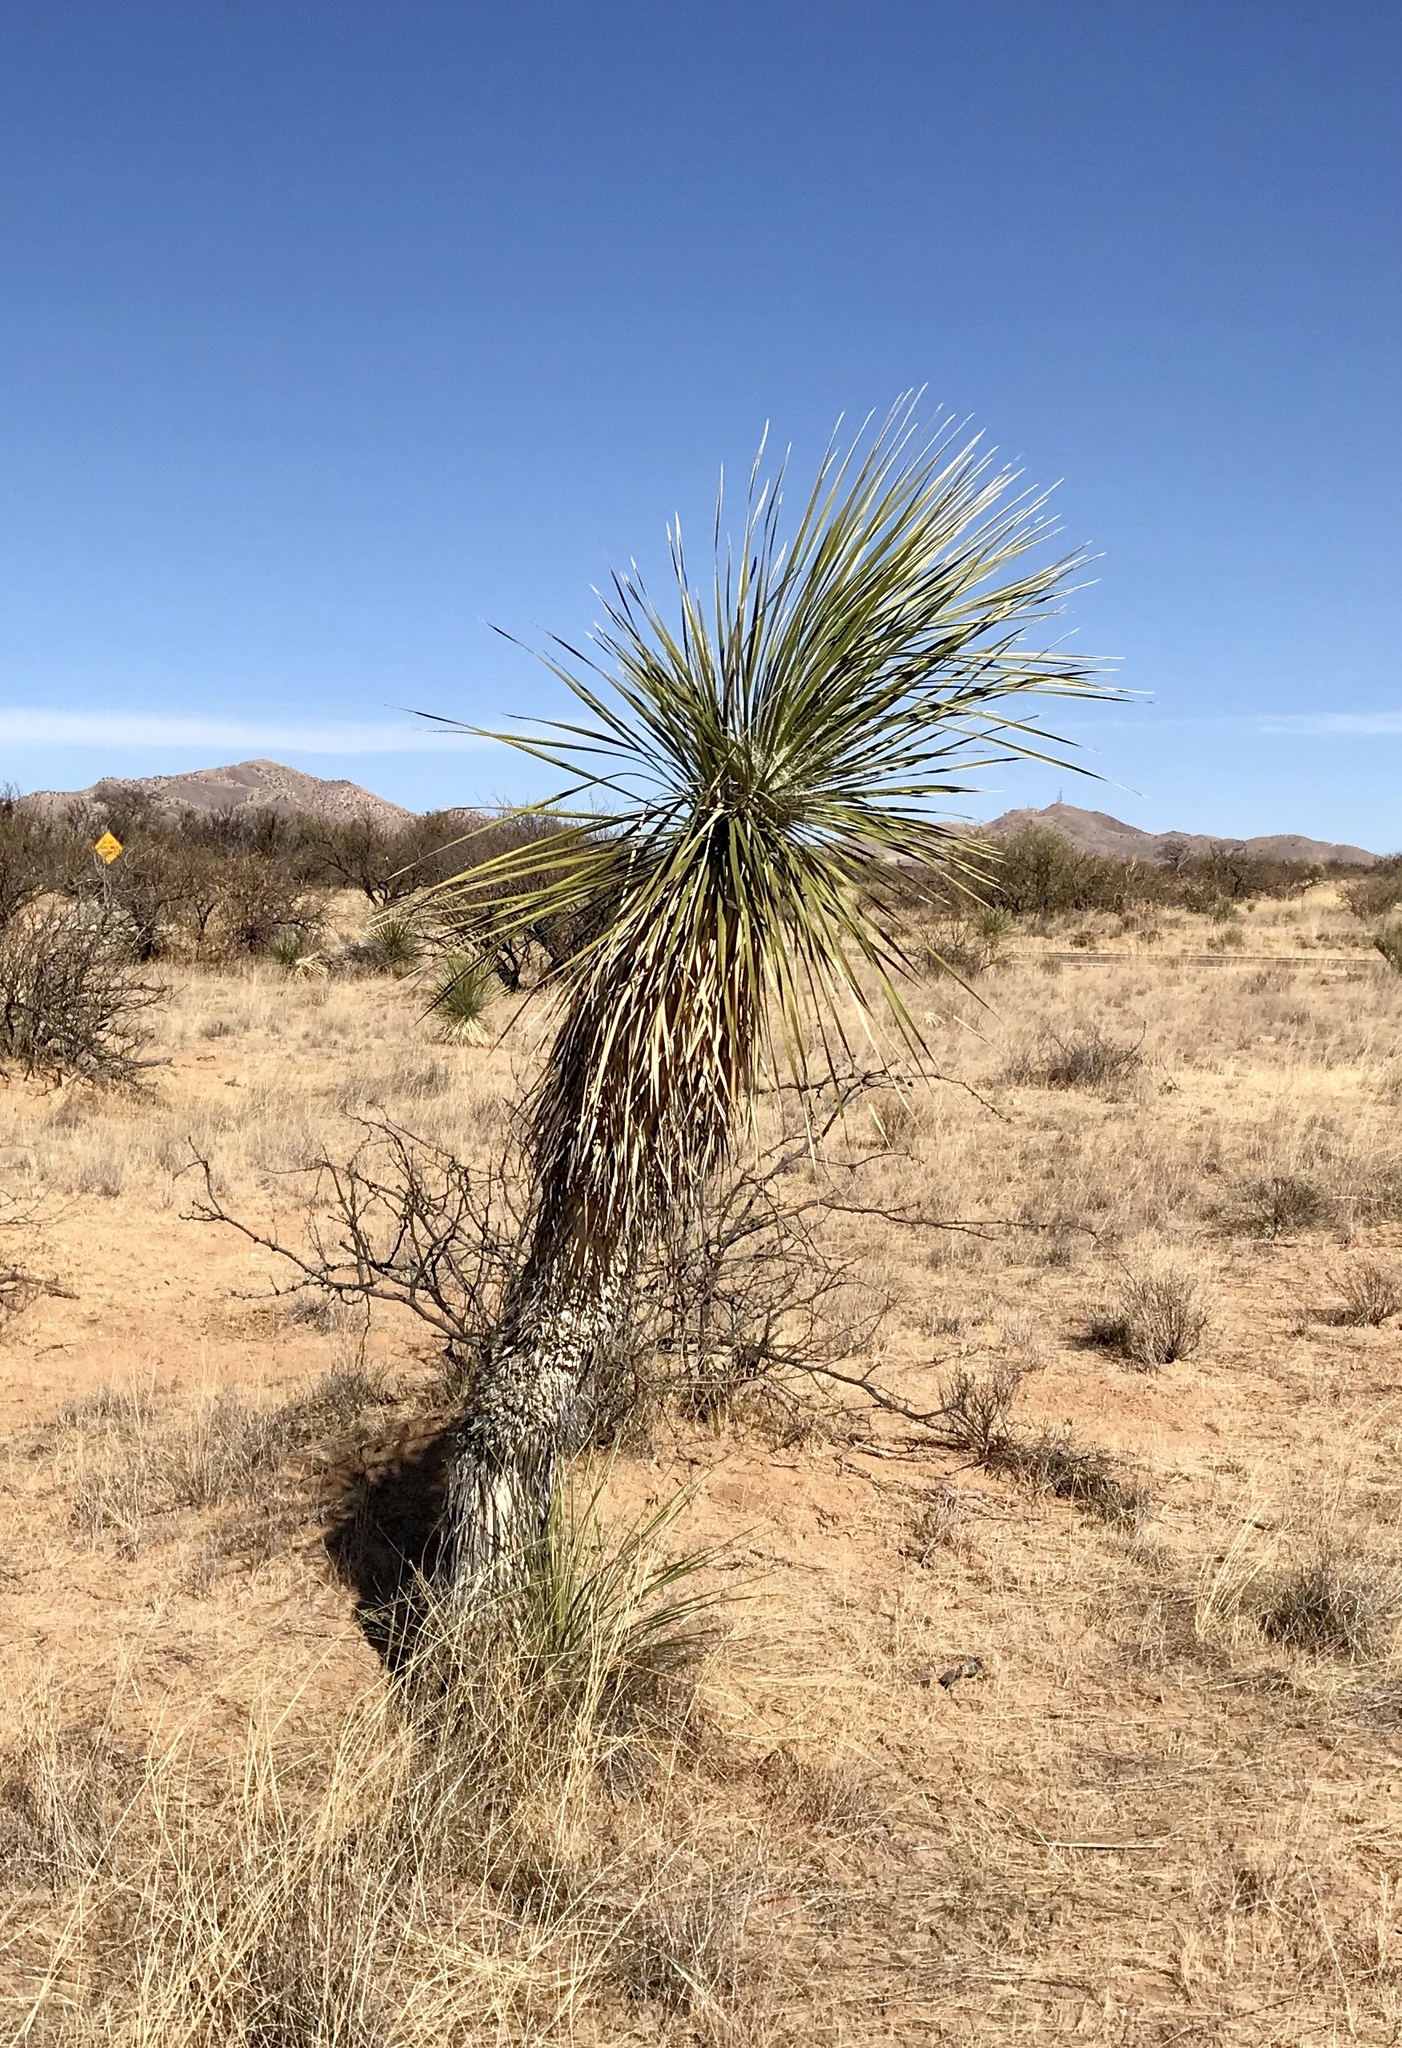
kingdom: Plantae
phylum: Tracheophyta
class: Liliopsida
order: Asparagales
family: Asparagaceae
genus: Yucca
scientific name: Yucca elata
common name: Palmella
